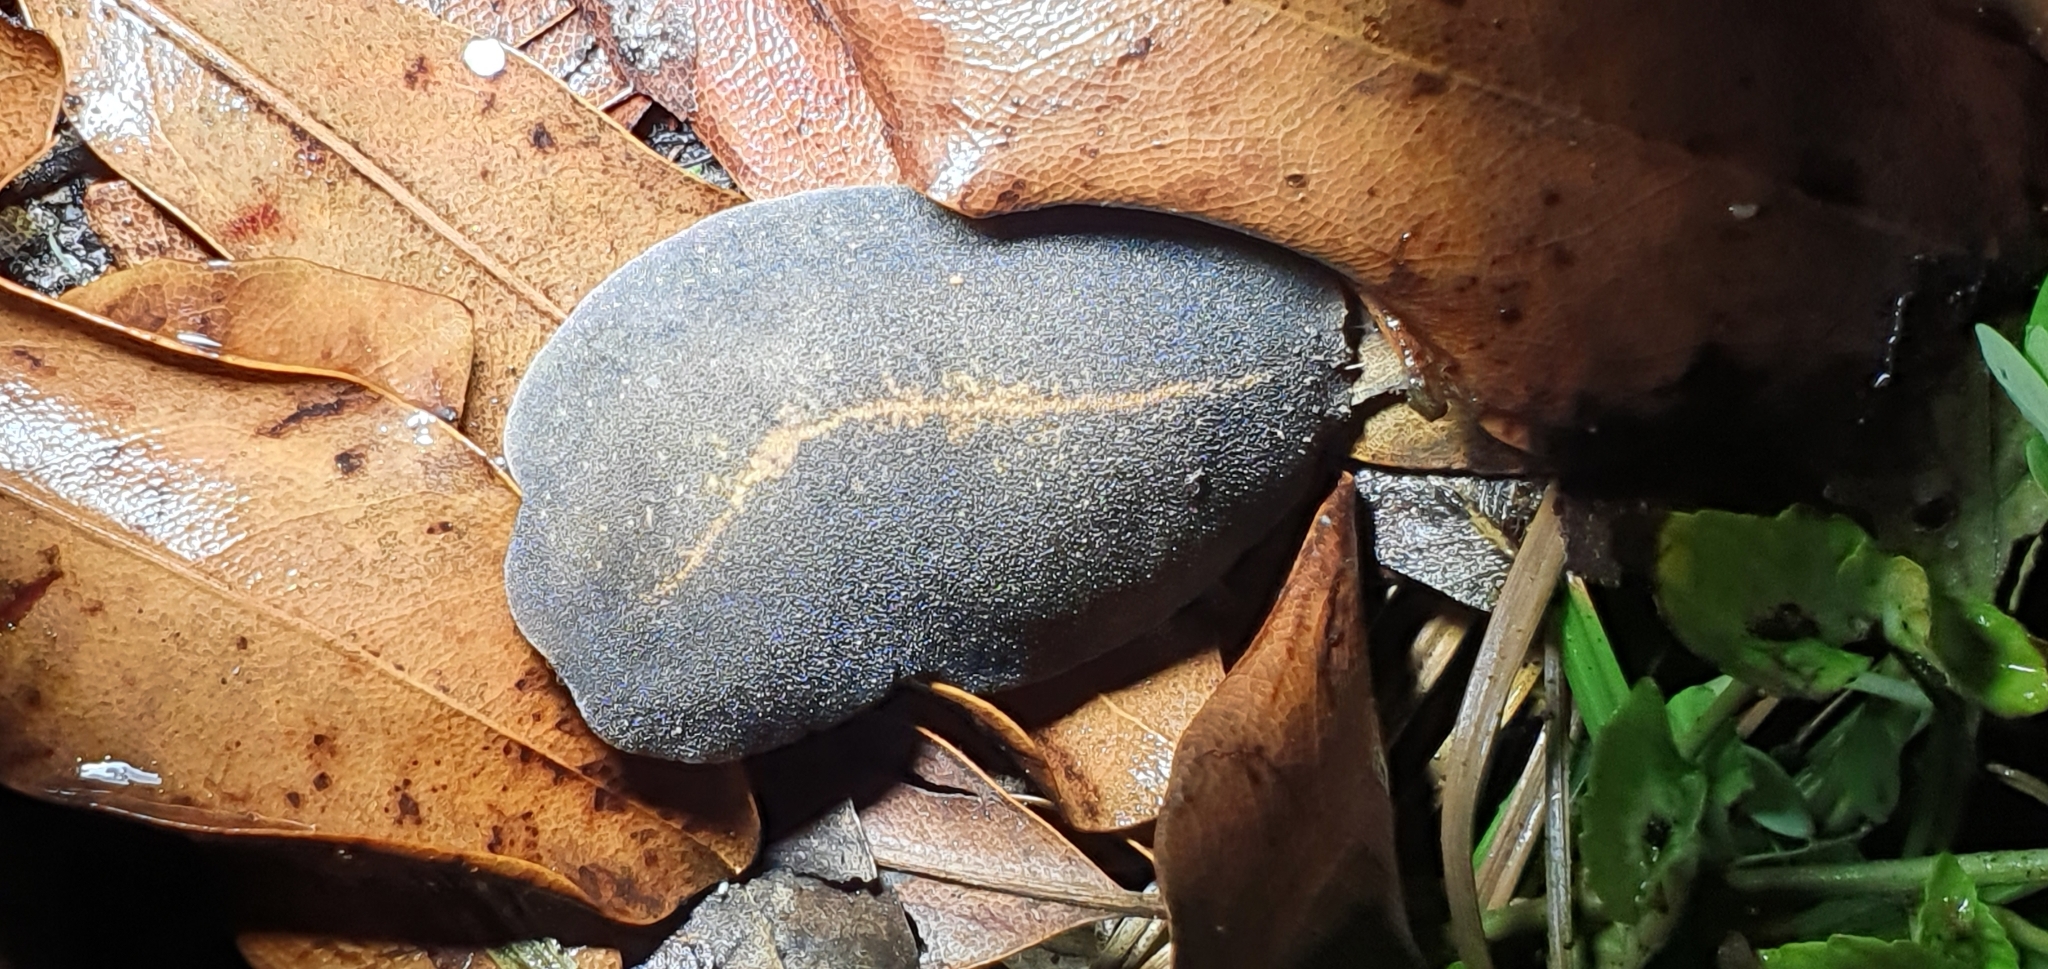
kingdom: Animalia
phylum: Mollusca
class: Gastropoda
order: Systellommatophora
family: Veronicellidae
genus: Laevicaulis
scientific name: Laevicaulis alte
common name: Tropical leatherleaf
